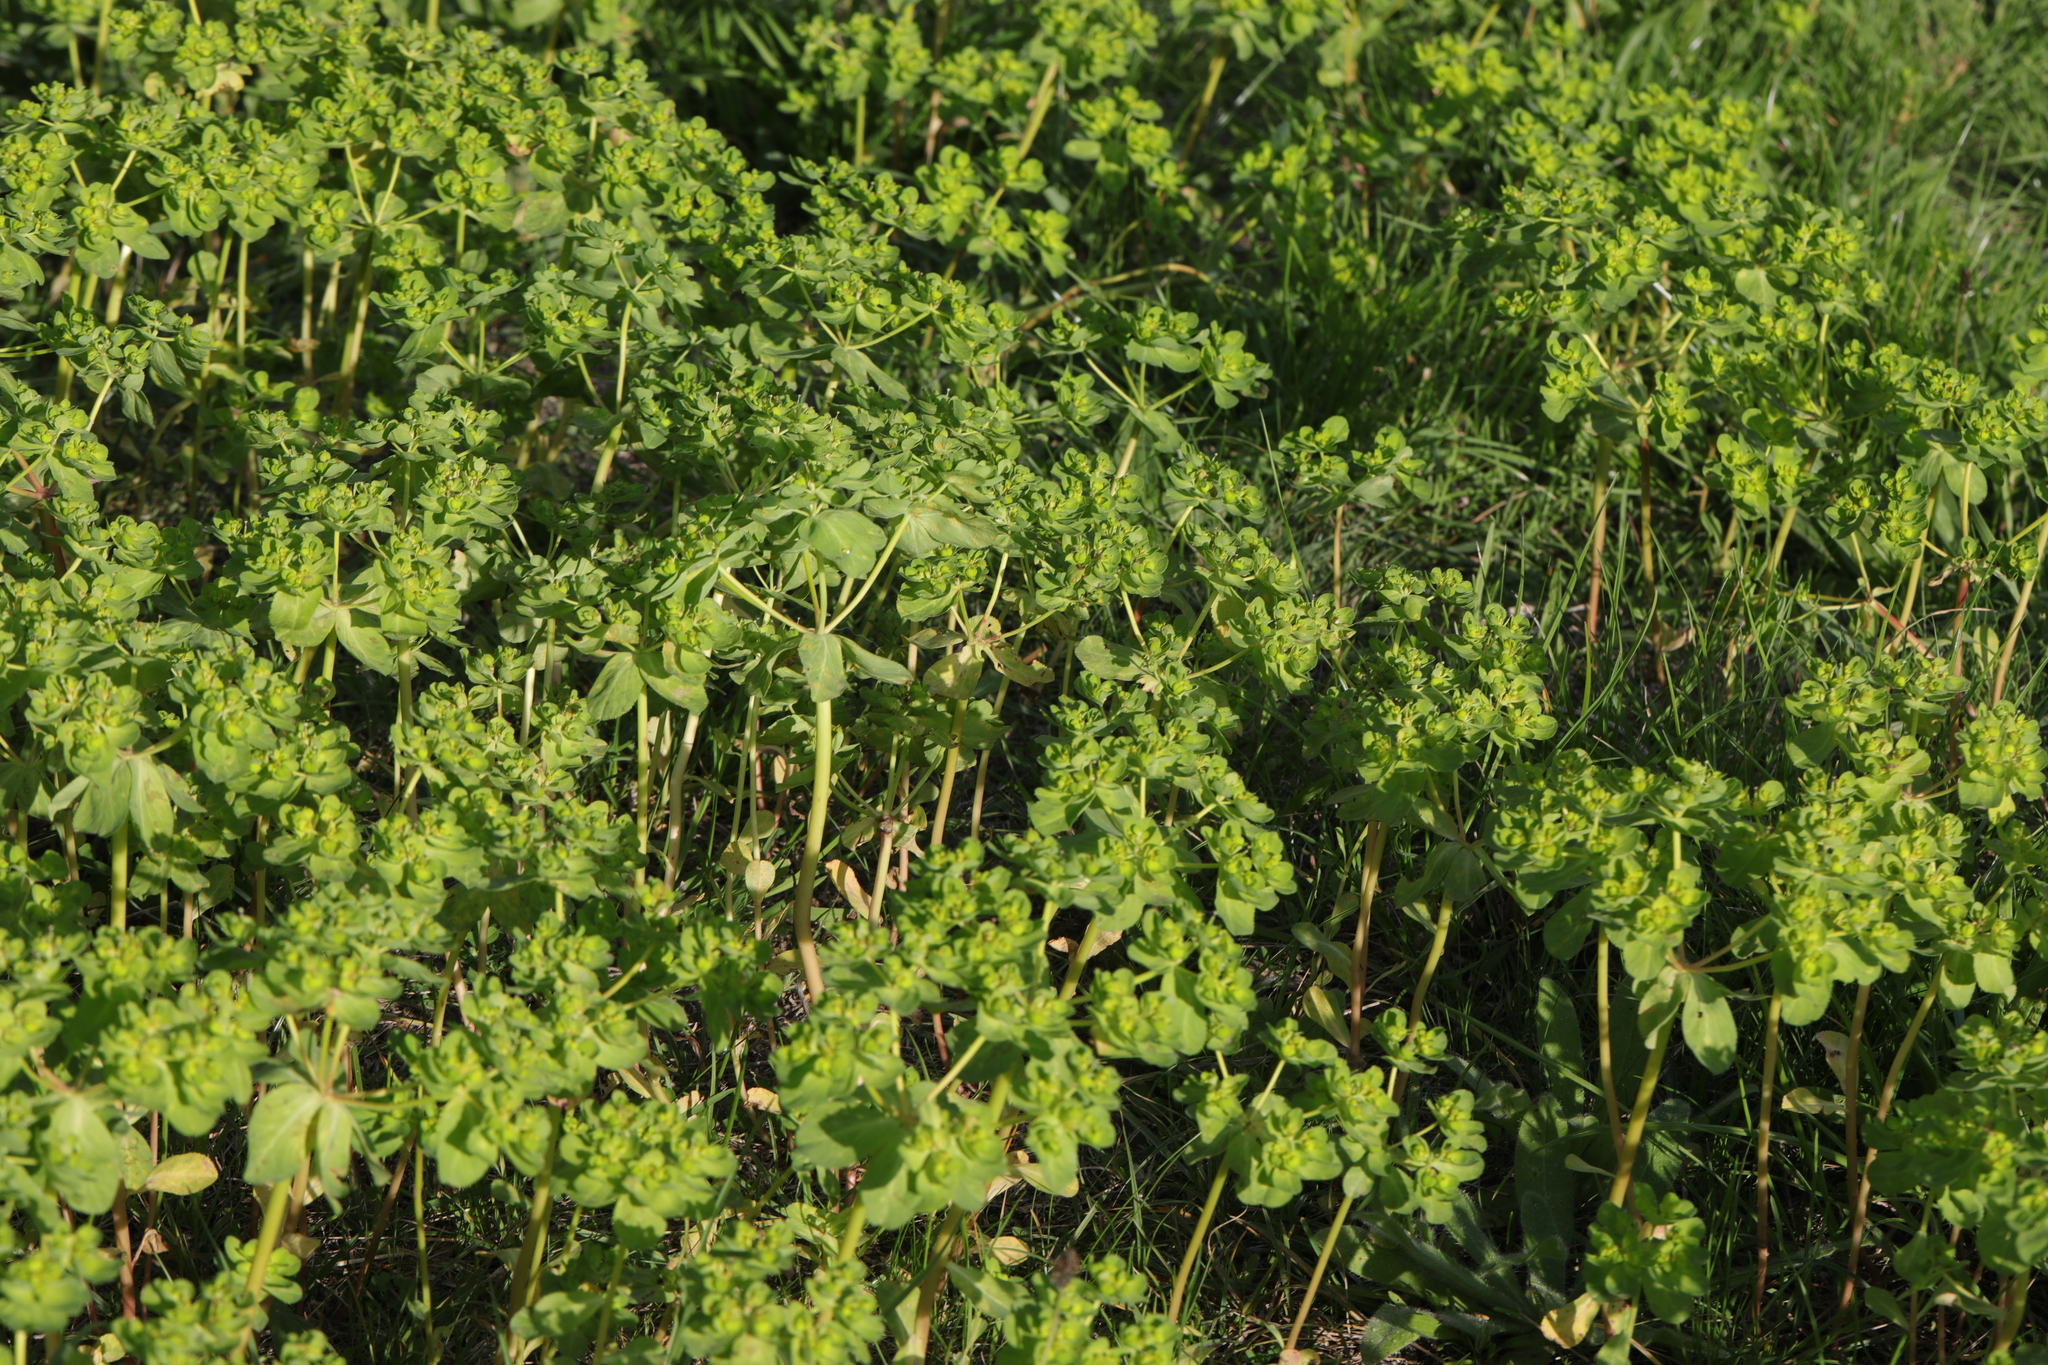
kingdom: Plantae
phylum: Tracheophyta
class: Magnoliopsida
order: Malpighiales
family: Euphorbiaceae
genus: Euphorbia
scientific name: Euphorbia helioscopia
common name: Sun spurge
